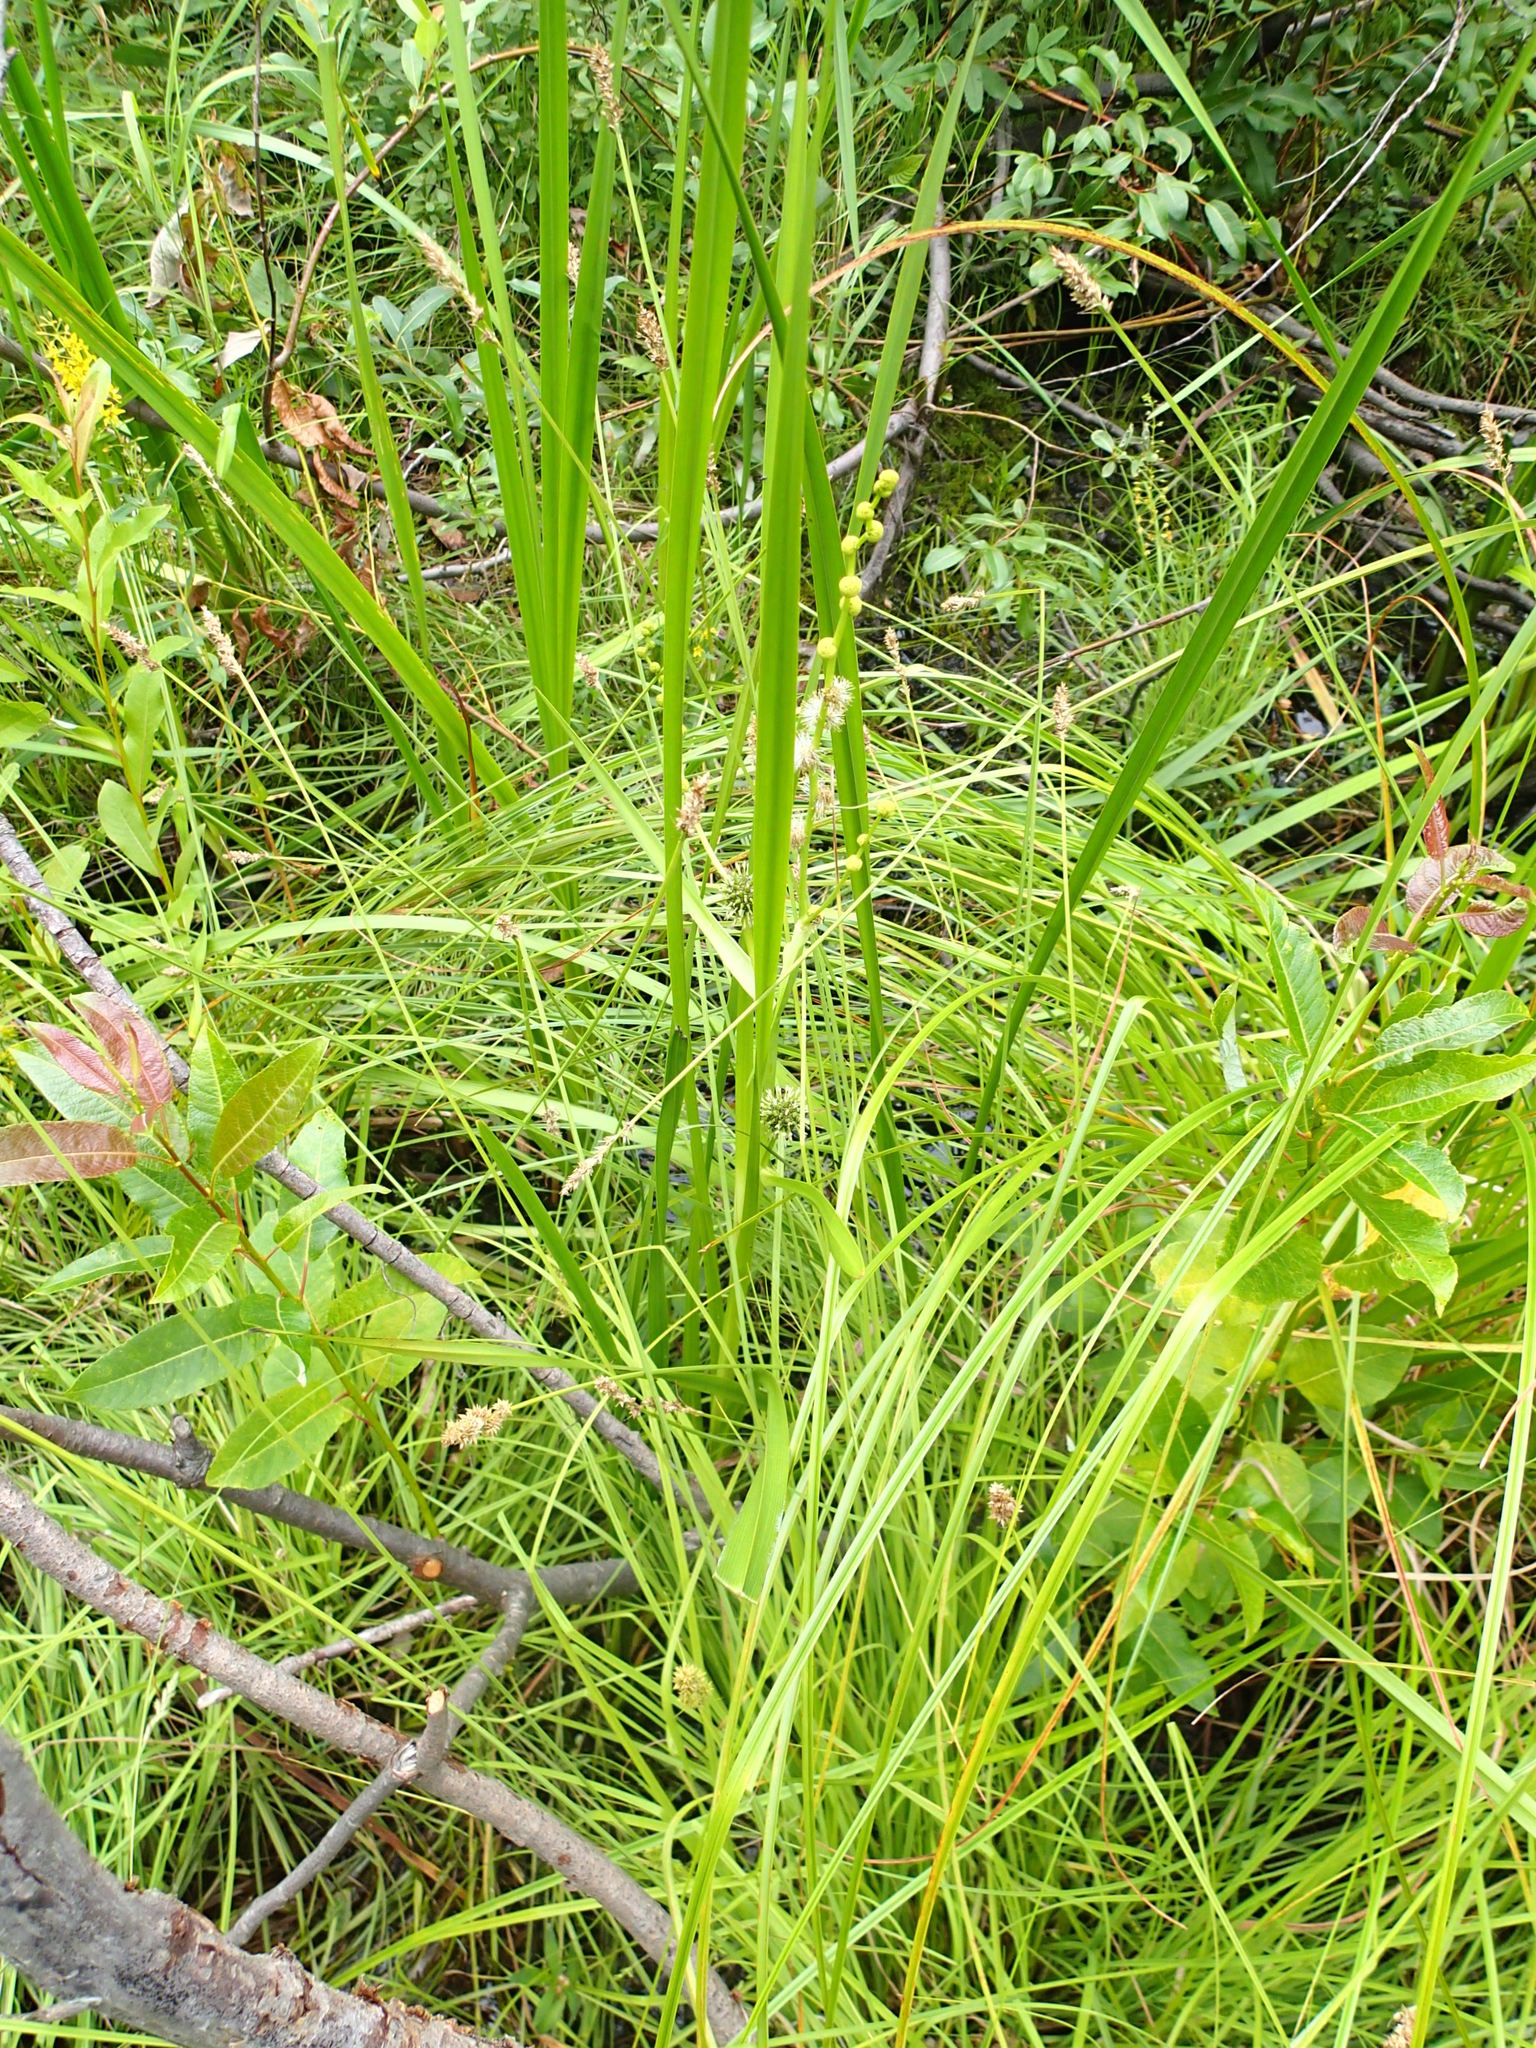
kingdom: Plantae
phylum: Tracheophyta
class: Liliopsida
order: Poales
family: Typhaceae
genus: Sparganium
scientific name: Sparganium eurycarpum
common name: Broad-fruited burreed
